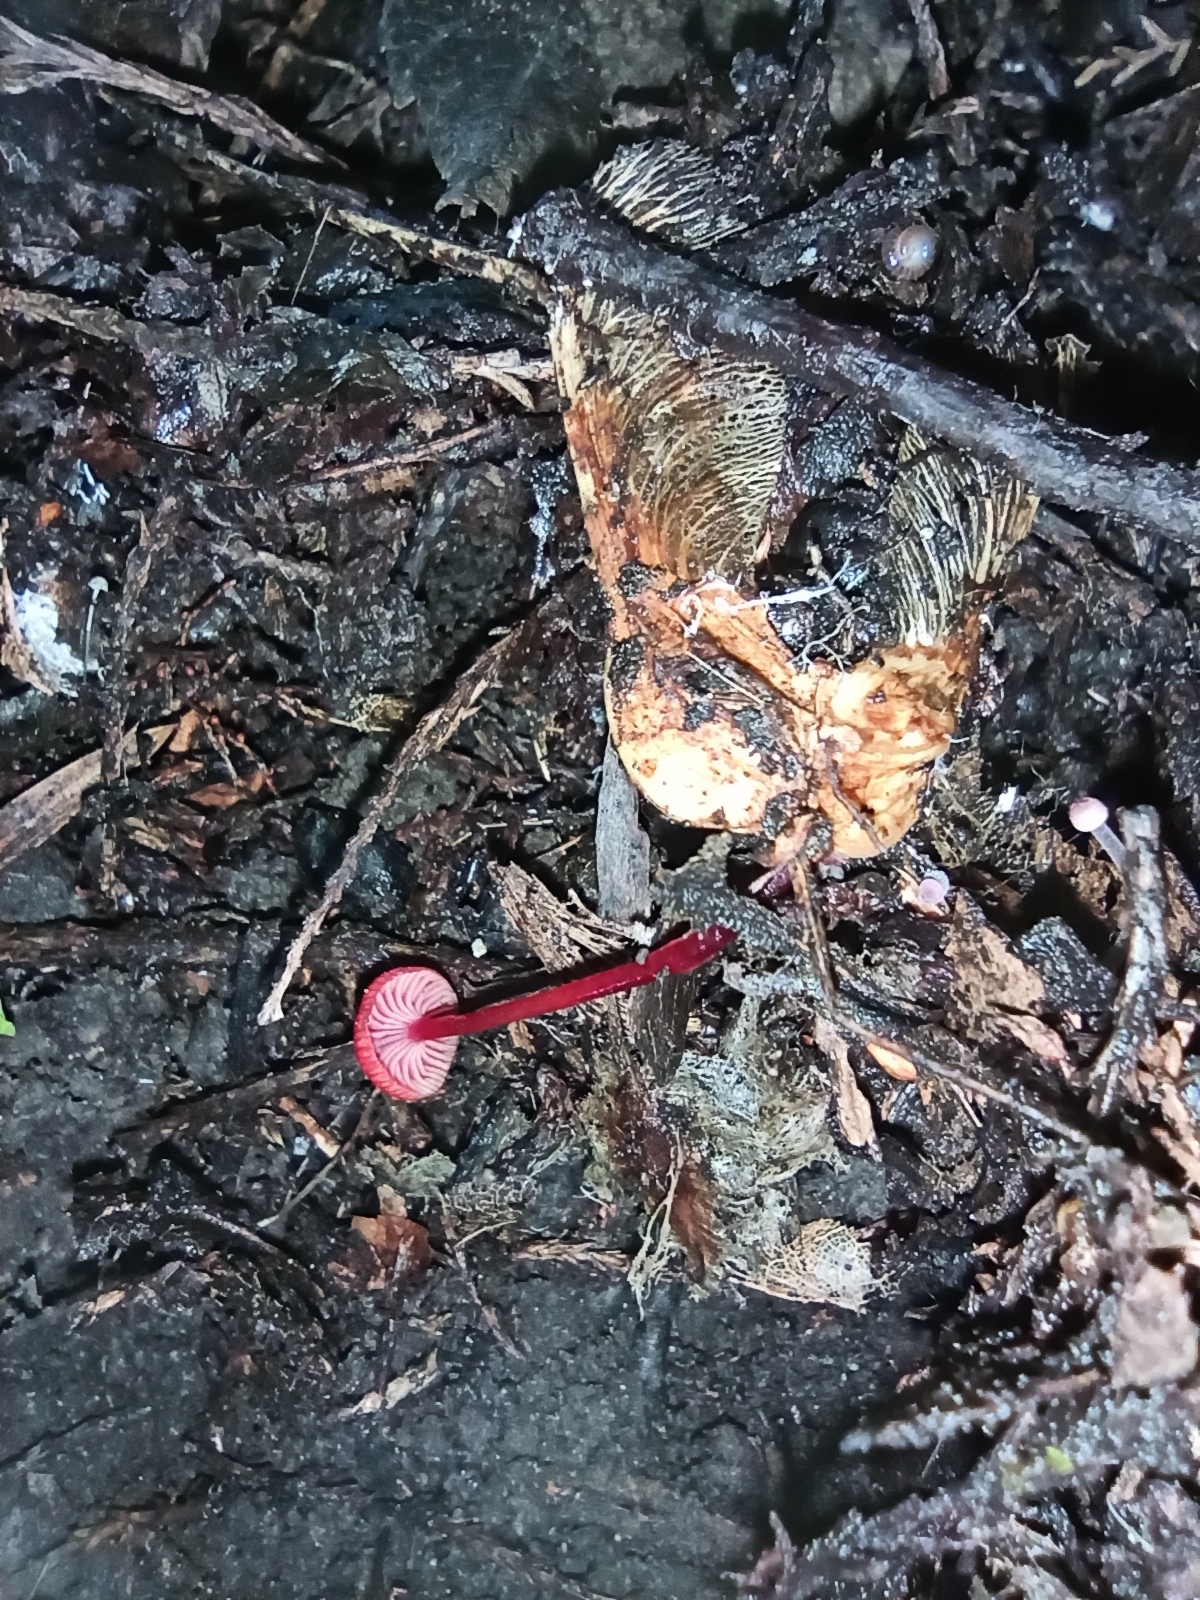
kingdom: Fungi
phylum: Basidiomycota
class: Agaricomycetes
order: Agaricales
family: Mycenaceae
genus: Cruentomycena
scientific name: Cruentomycena viscidocruenta
